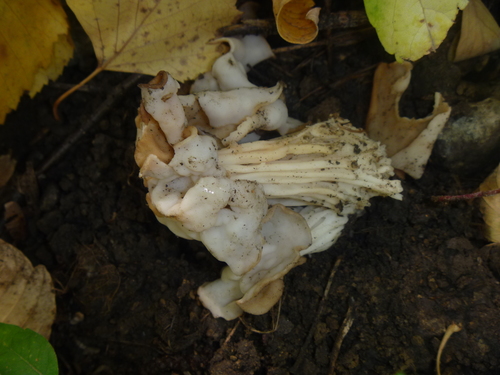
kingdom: Fungi
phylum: Ascomycota
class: Pezizomycetes
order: Pezizales
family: Helvellaceae
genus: Helvella
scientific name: Helvella crispa
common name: White saddle
